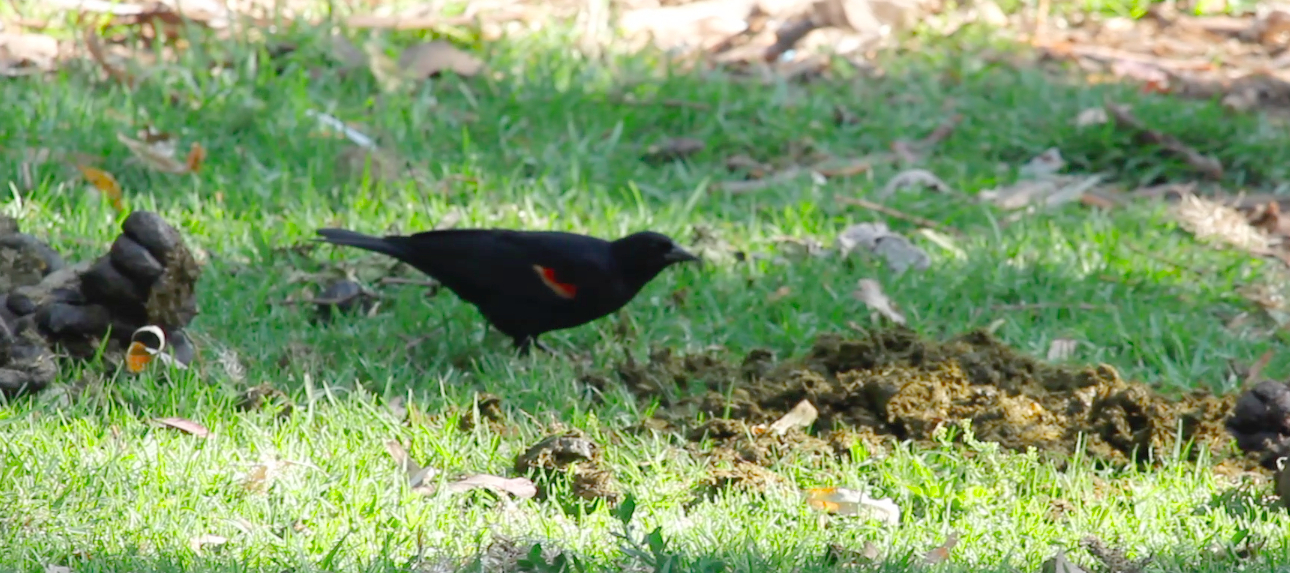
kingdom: Animalia
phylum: Chordata
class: Aves
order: Passeriformes
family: Icteridae
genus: Agelaius
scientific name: Agelaius phoeniceus
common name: Red-winged blackbird
